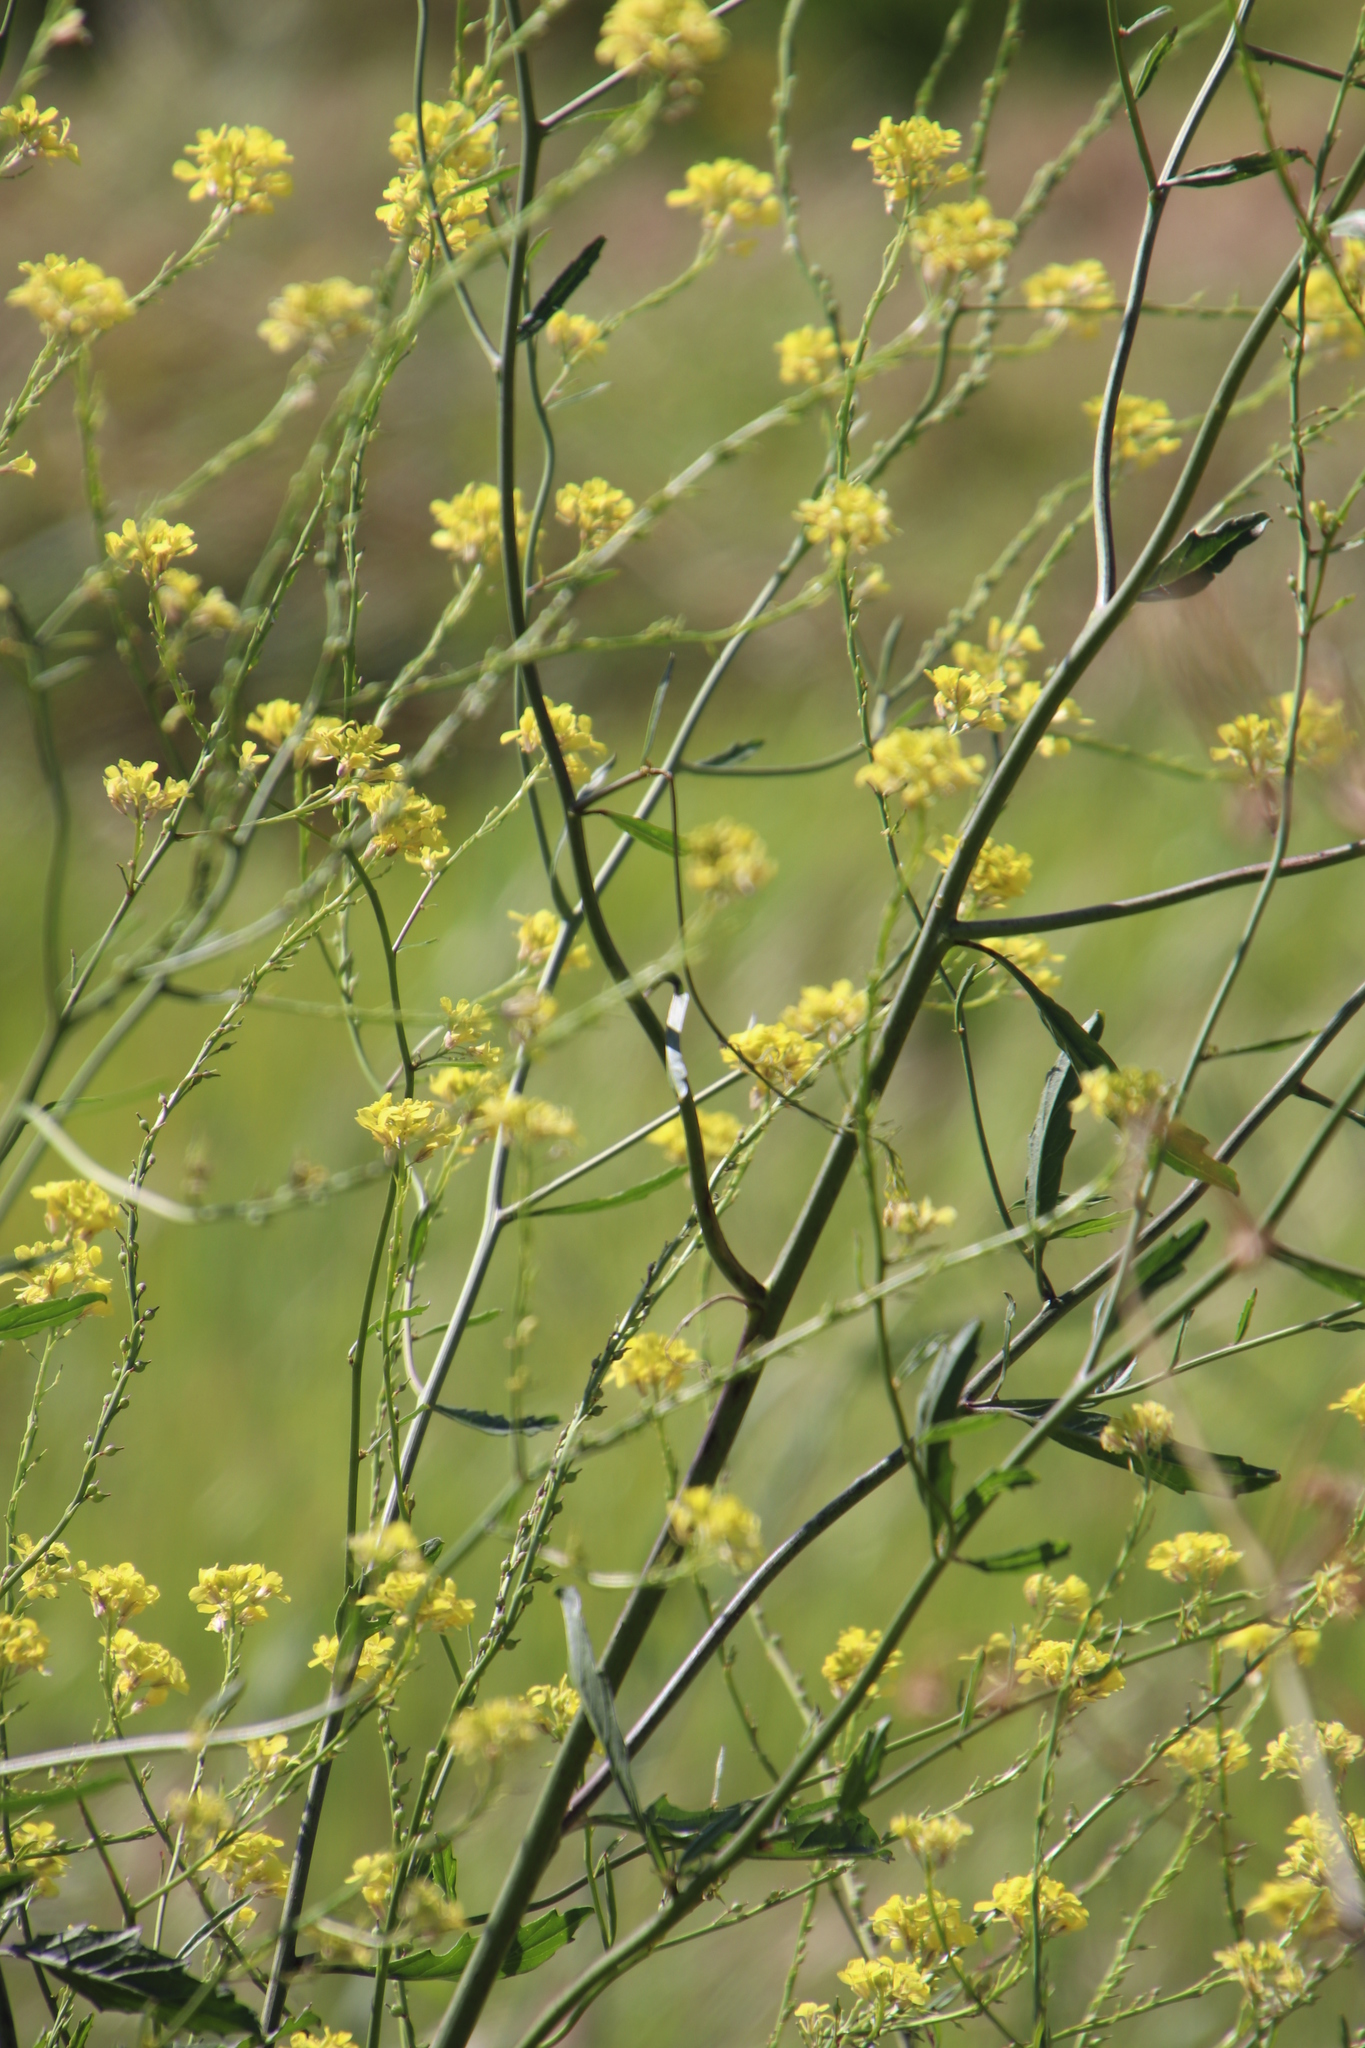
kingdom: Plantae
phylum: Tracheophyta
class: Magnoliopsida
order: Brassicales
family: Brassicaceae
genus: Rapistrum
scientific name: Rapistrum rugosum
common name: Annual bastardcabbage
